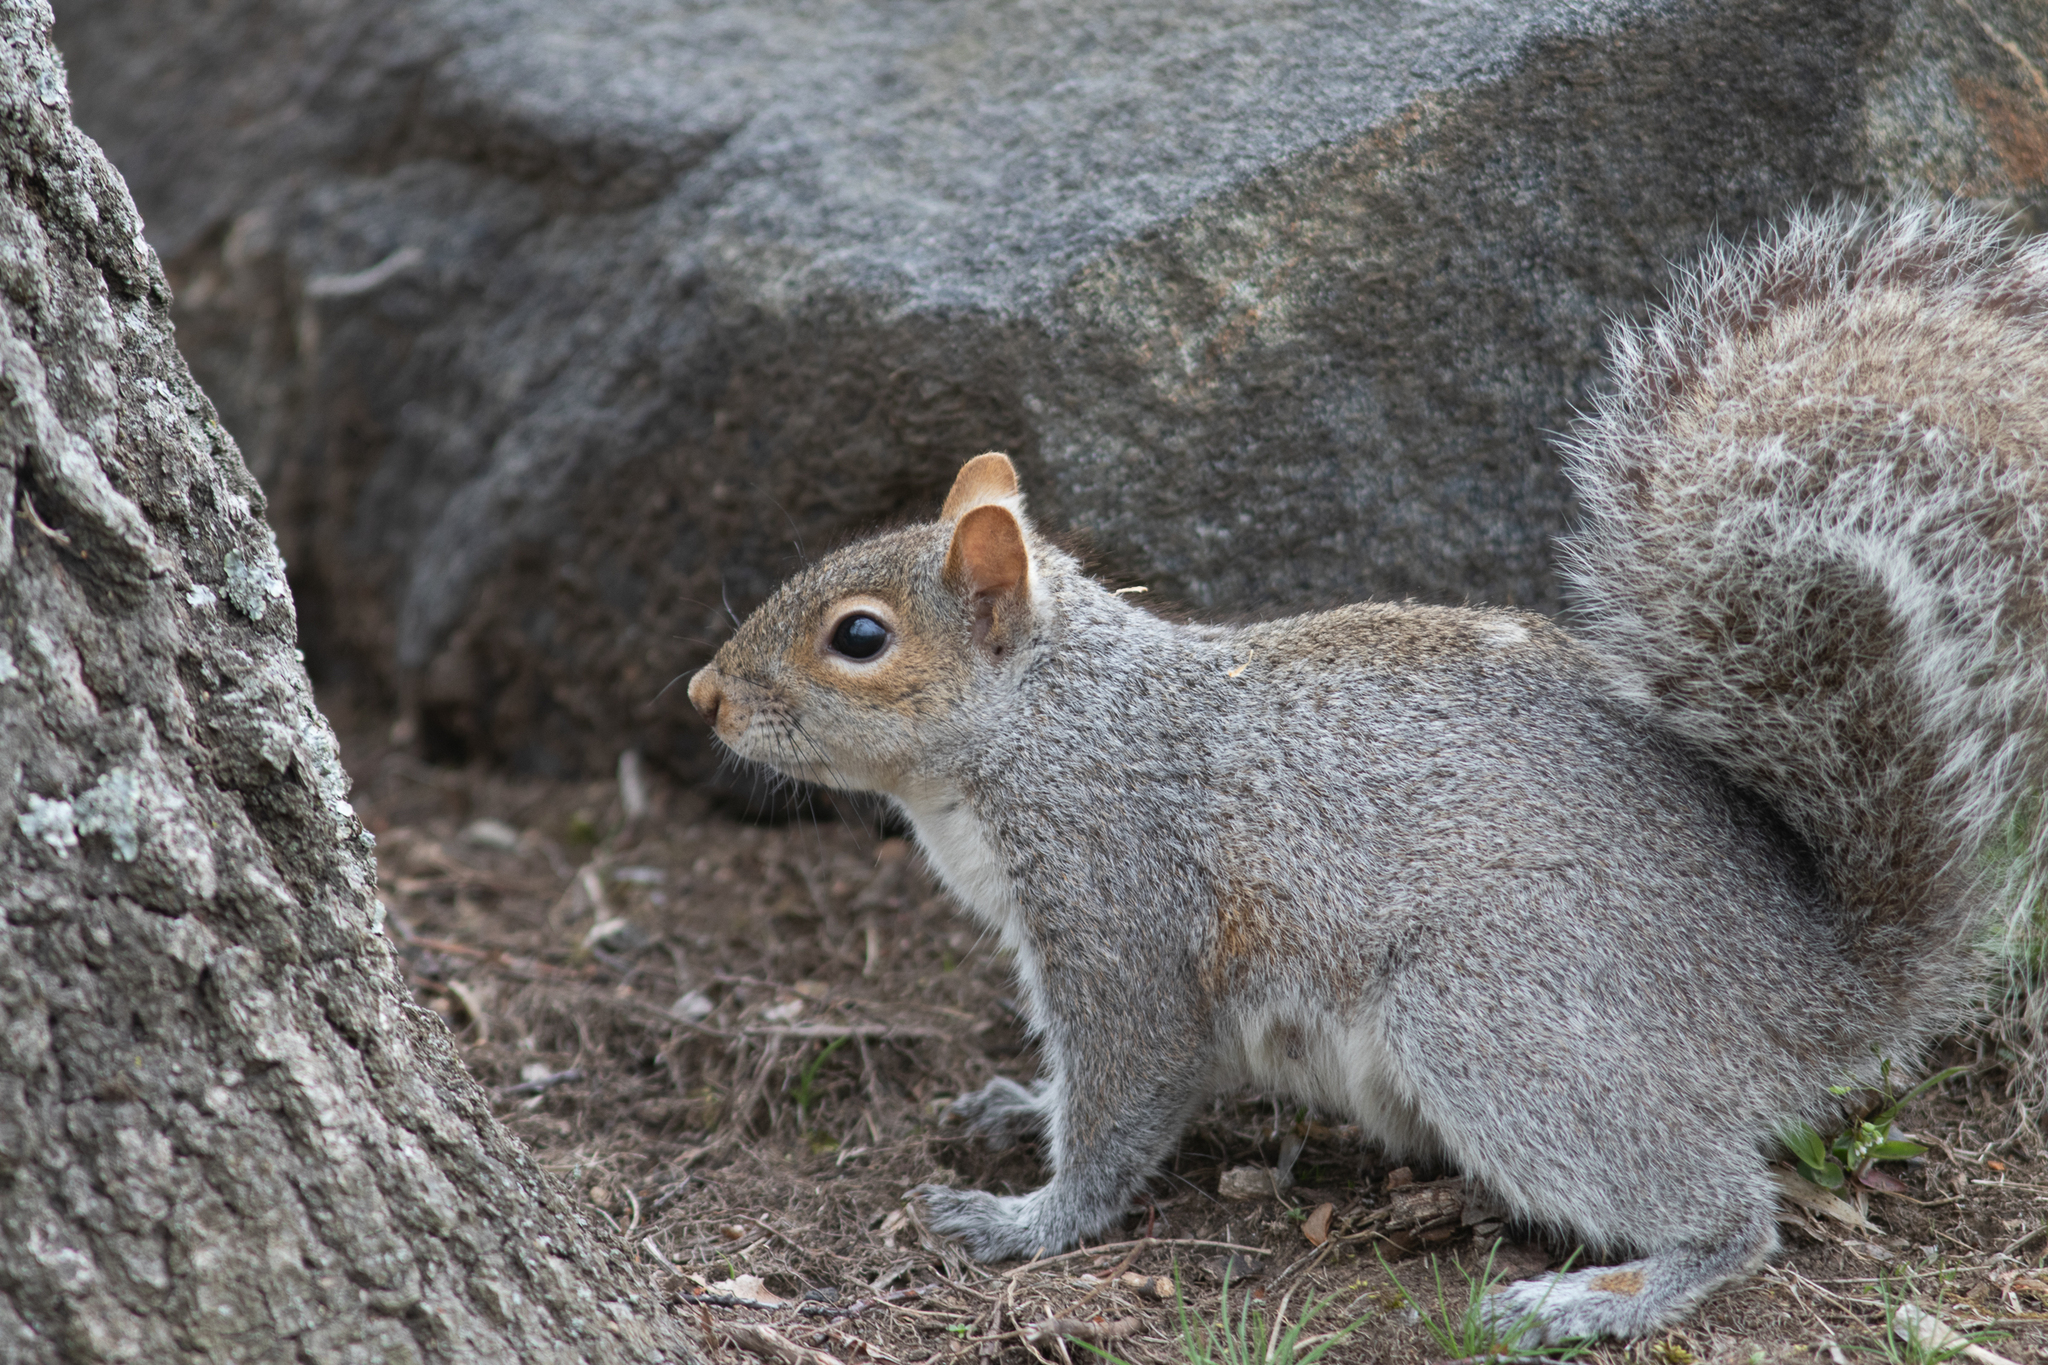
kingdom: Animalia
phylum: Chordata
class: Mammalia
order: Rodentia
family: Sciuridae
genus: Sciurus
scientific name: Sciurus carolinensis
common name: Eastern gray squirrel
